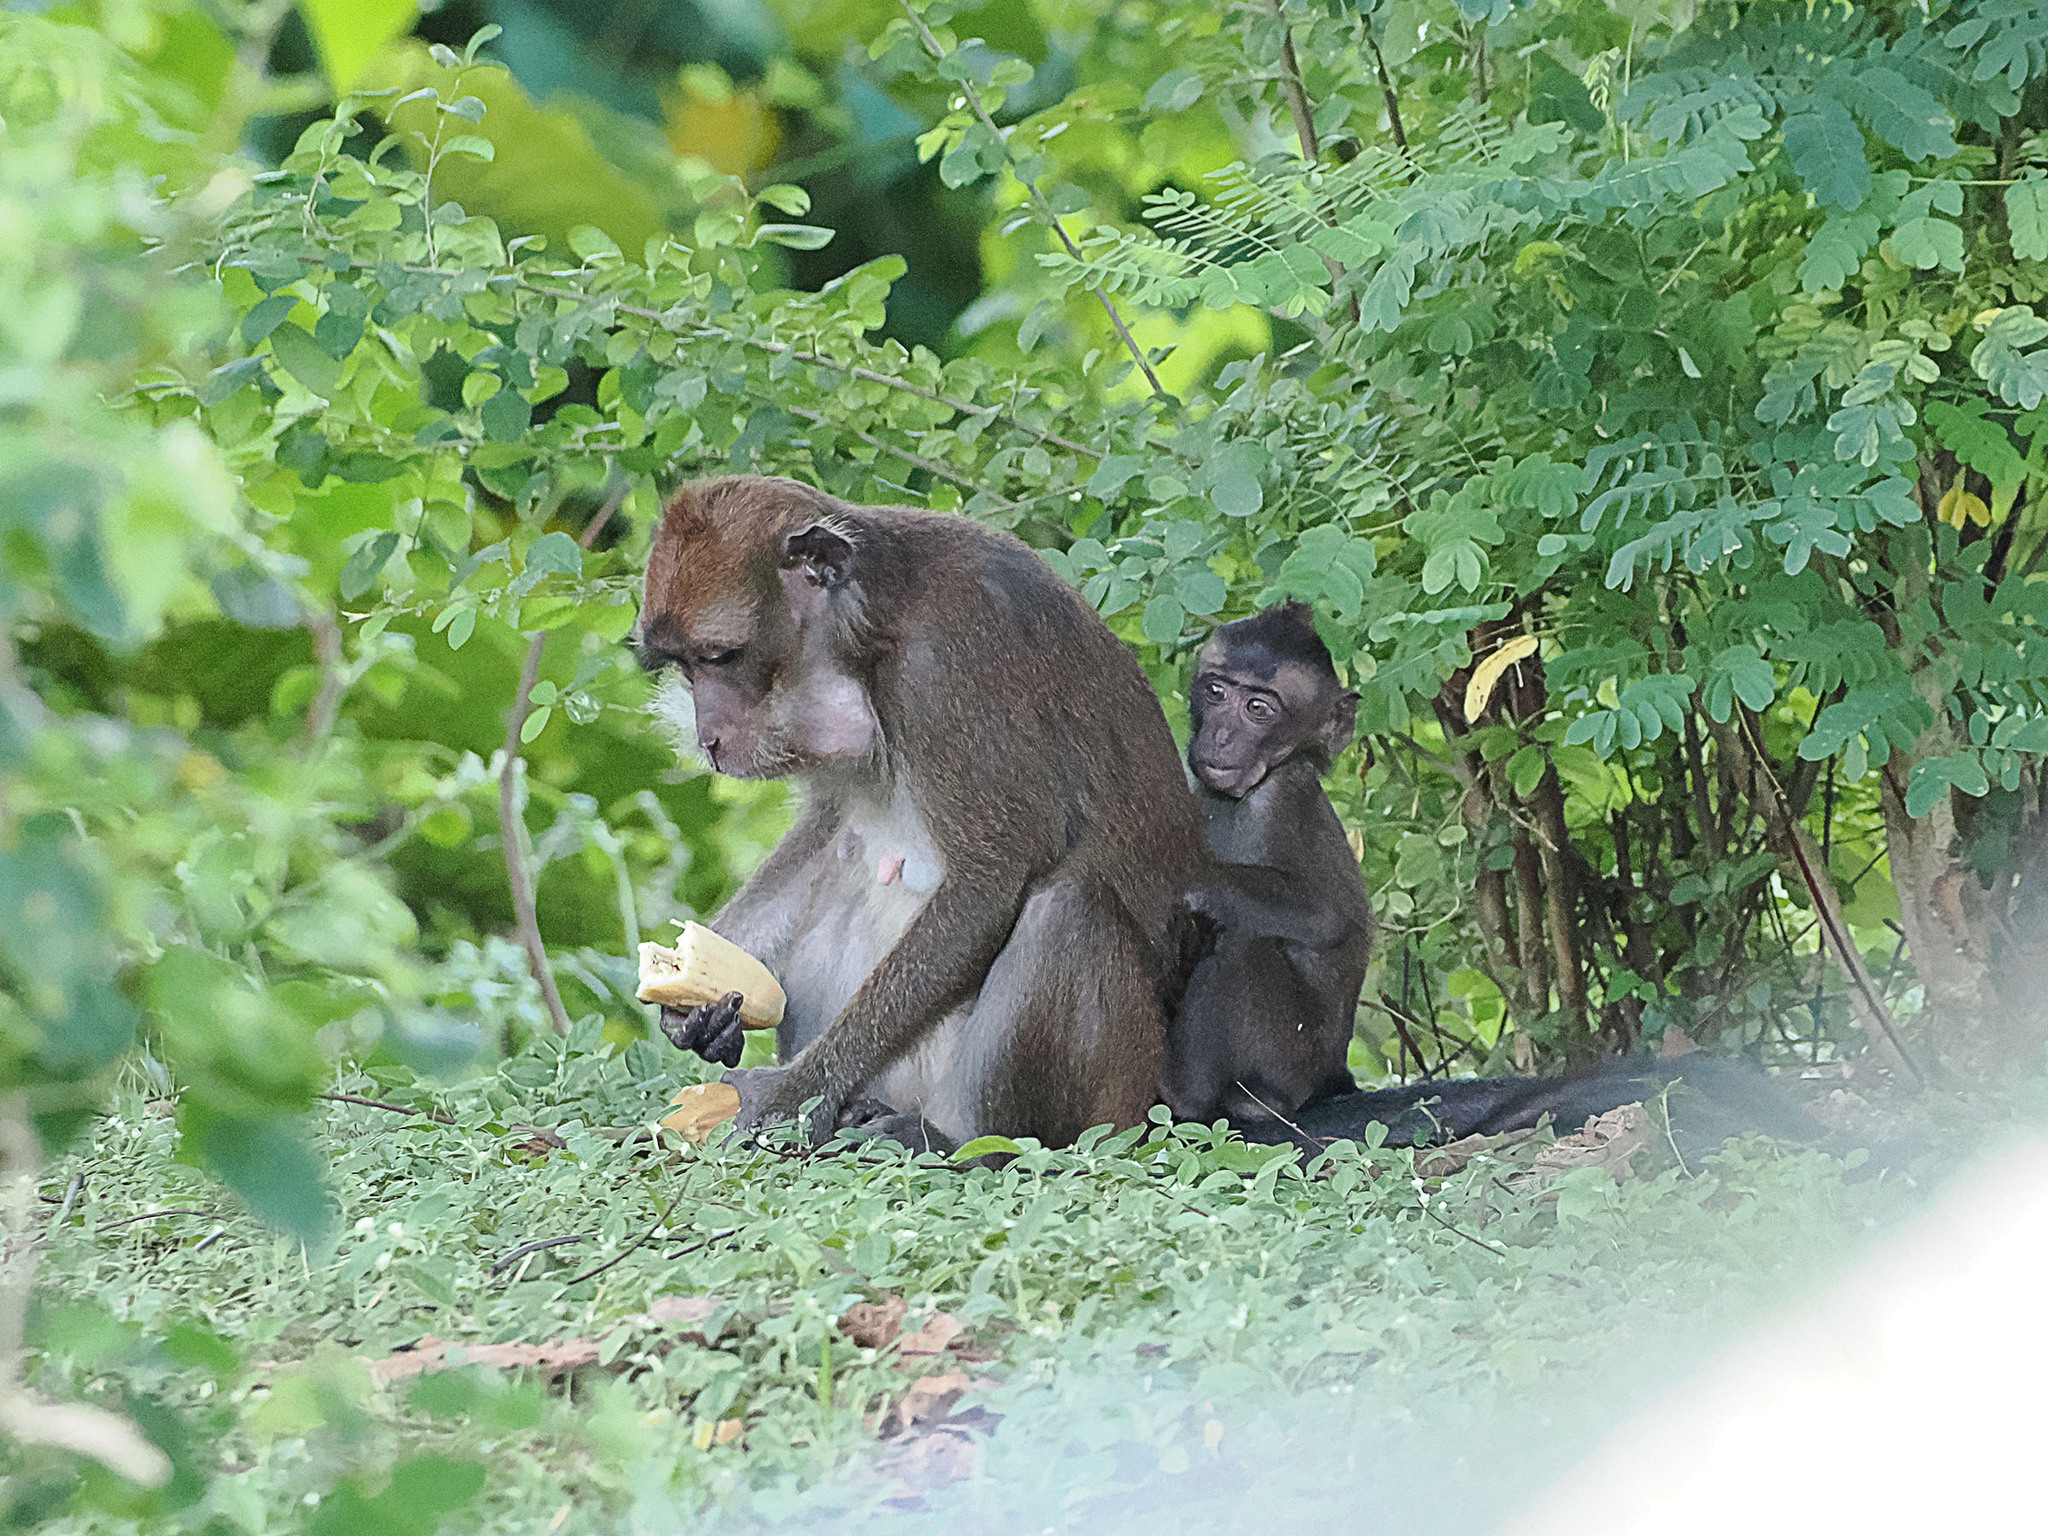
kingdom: Animalia
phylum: Chordata
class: Mammalia
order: Primates
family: Cercopithecidae
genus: Macaca
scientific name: Macaca fascicularis
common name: Crab-eating macaque
